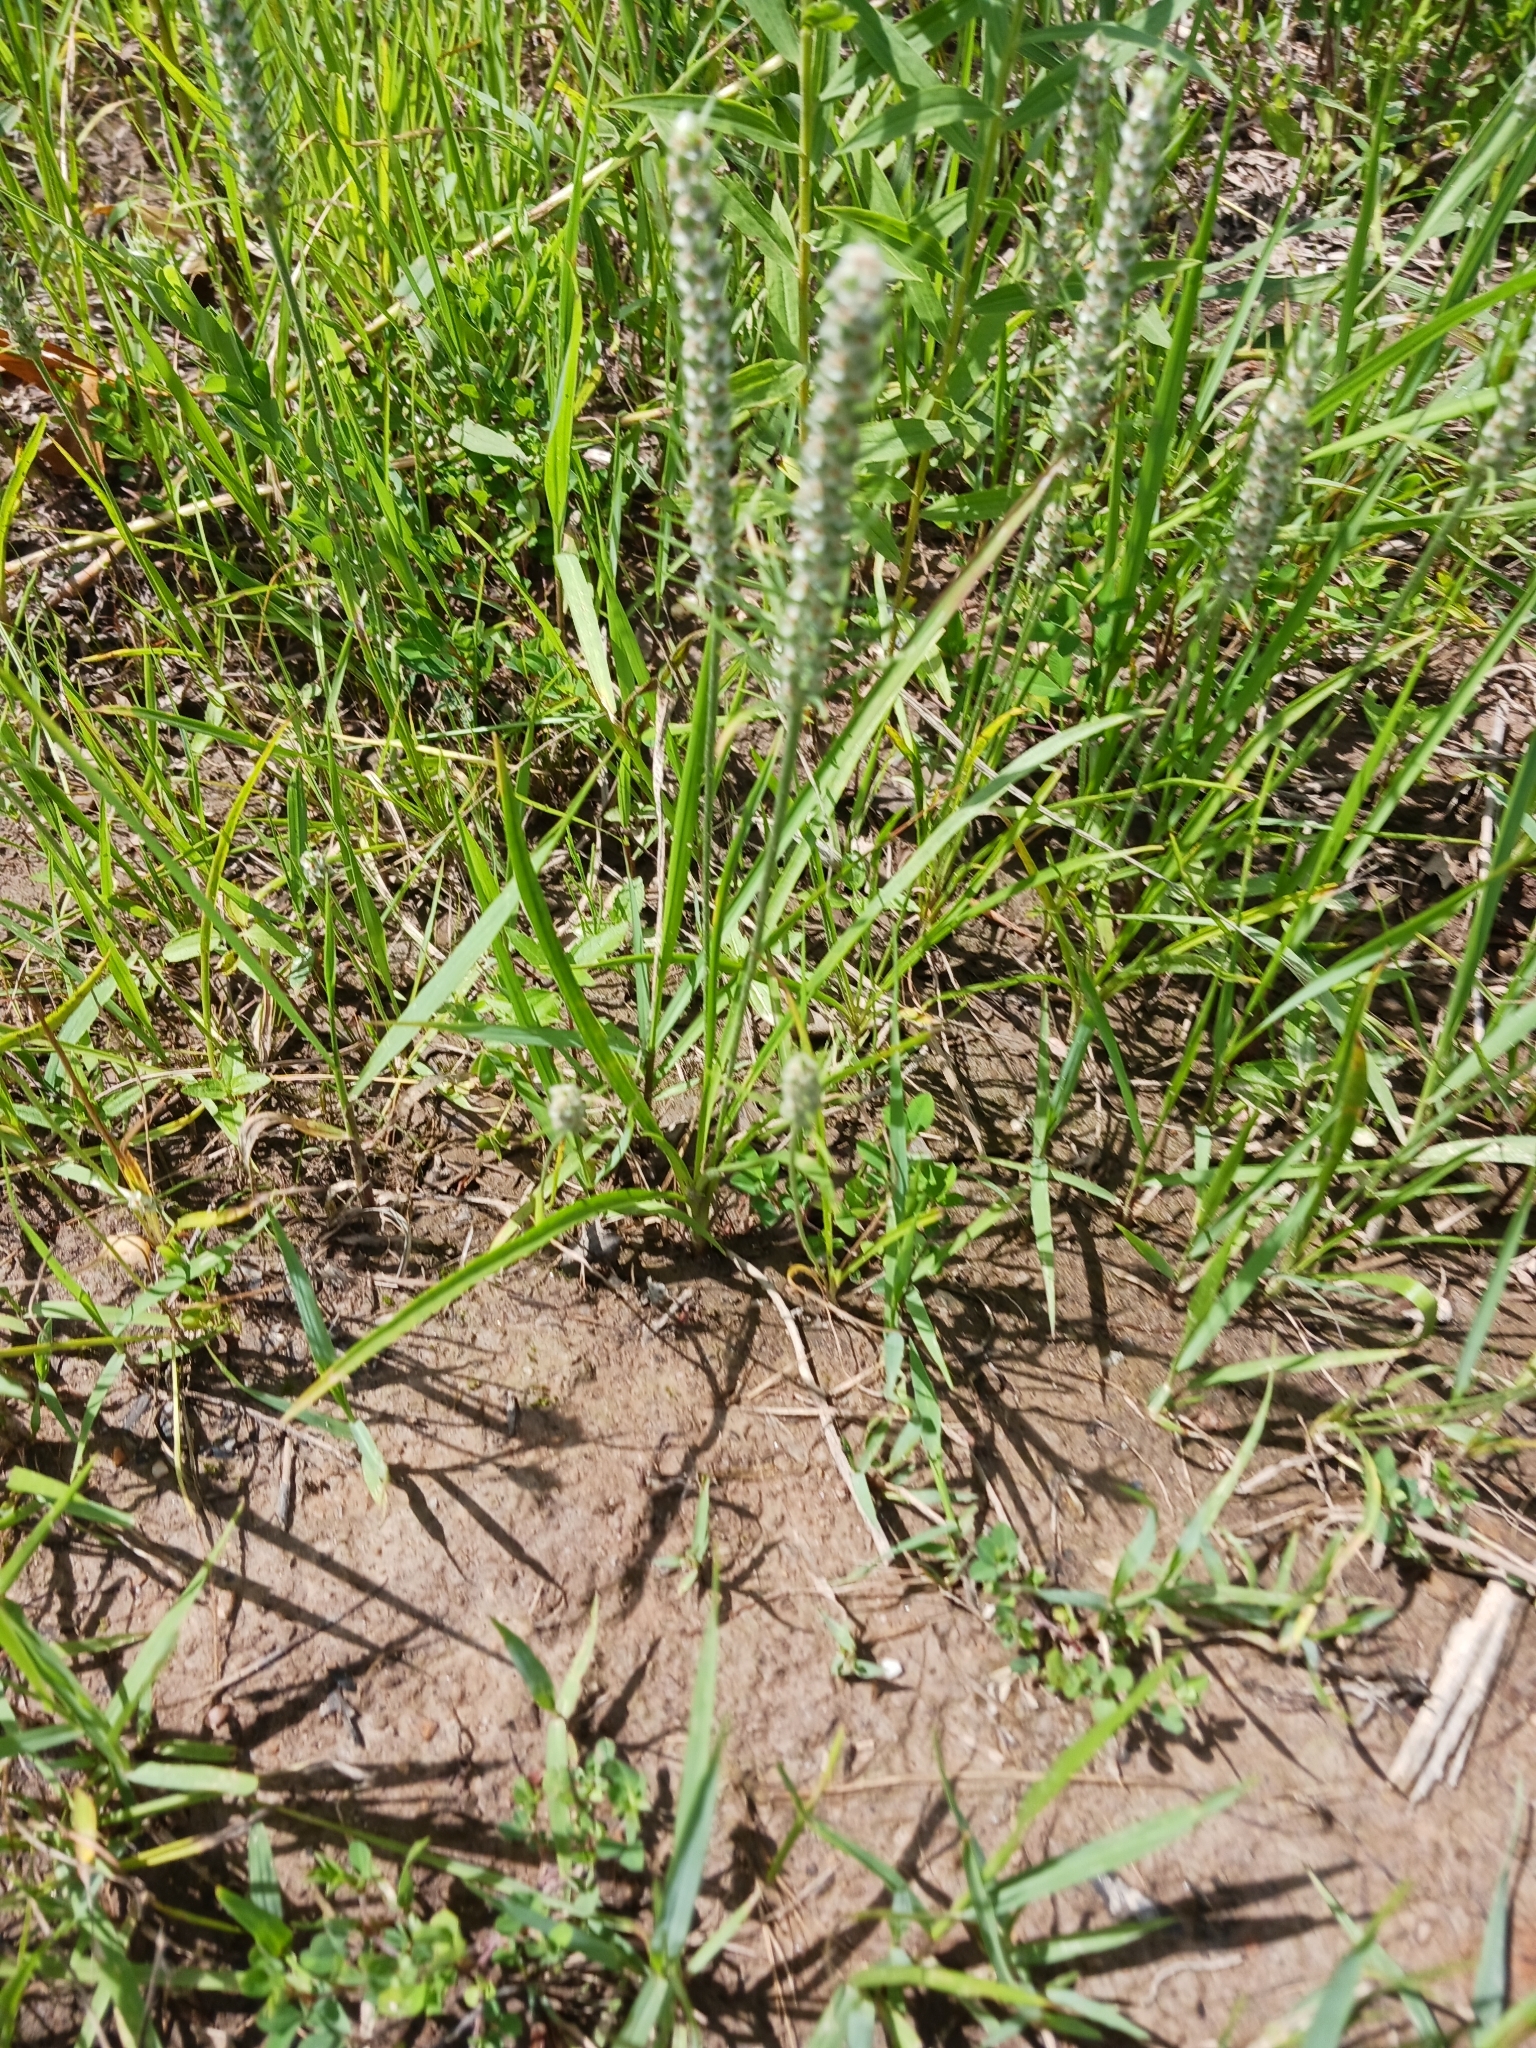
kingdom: Plantae
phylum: Tracheophyta
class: Magnoliopsida
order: Lamiales
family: Plantaginaceae
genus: Plantago
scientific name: Plantago aristata
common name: Bracted plantain
